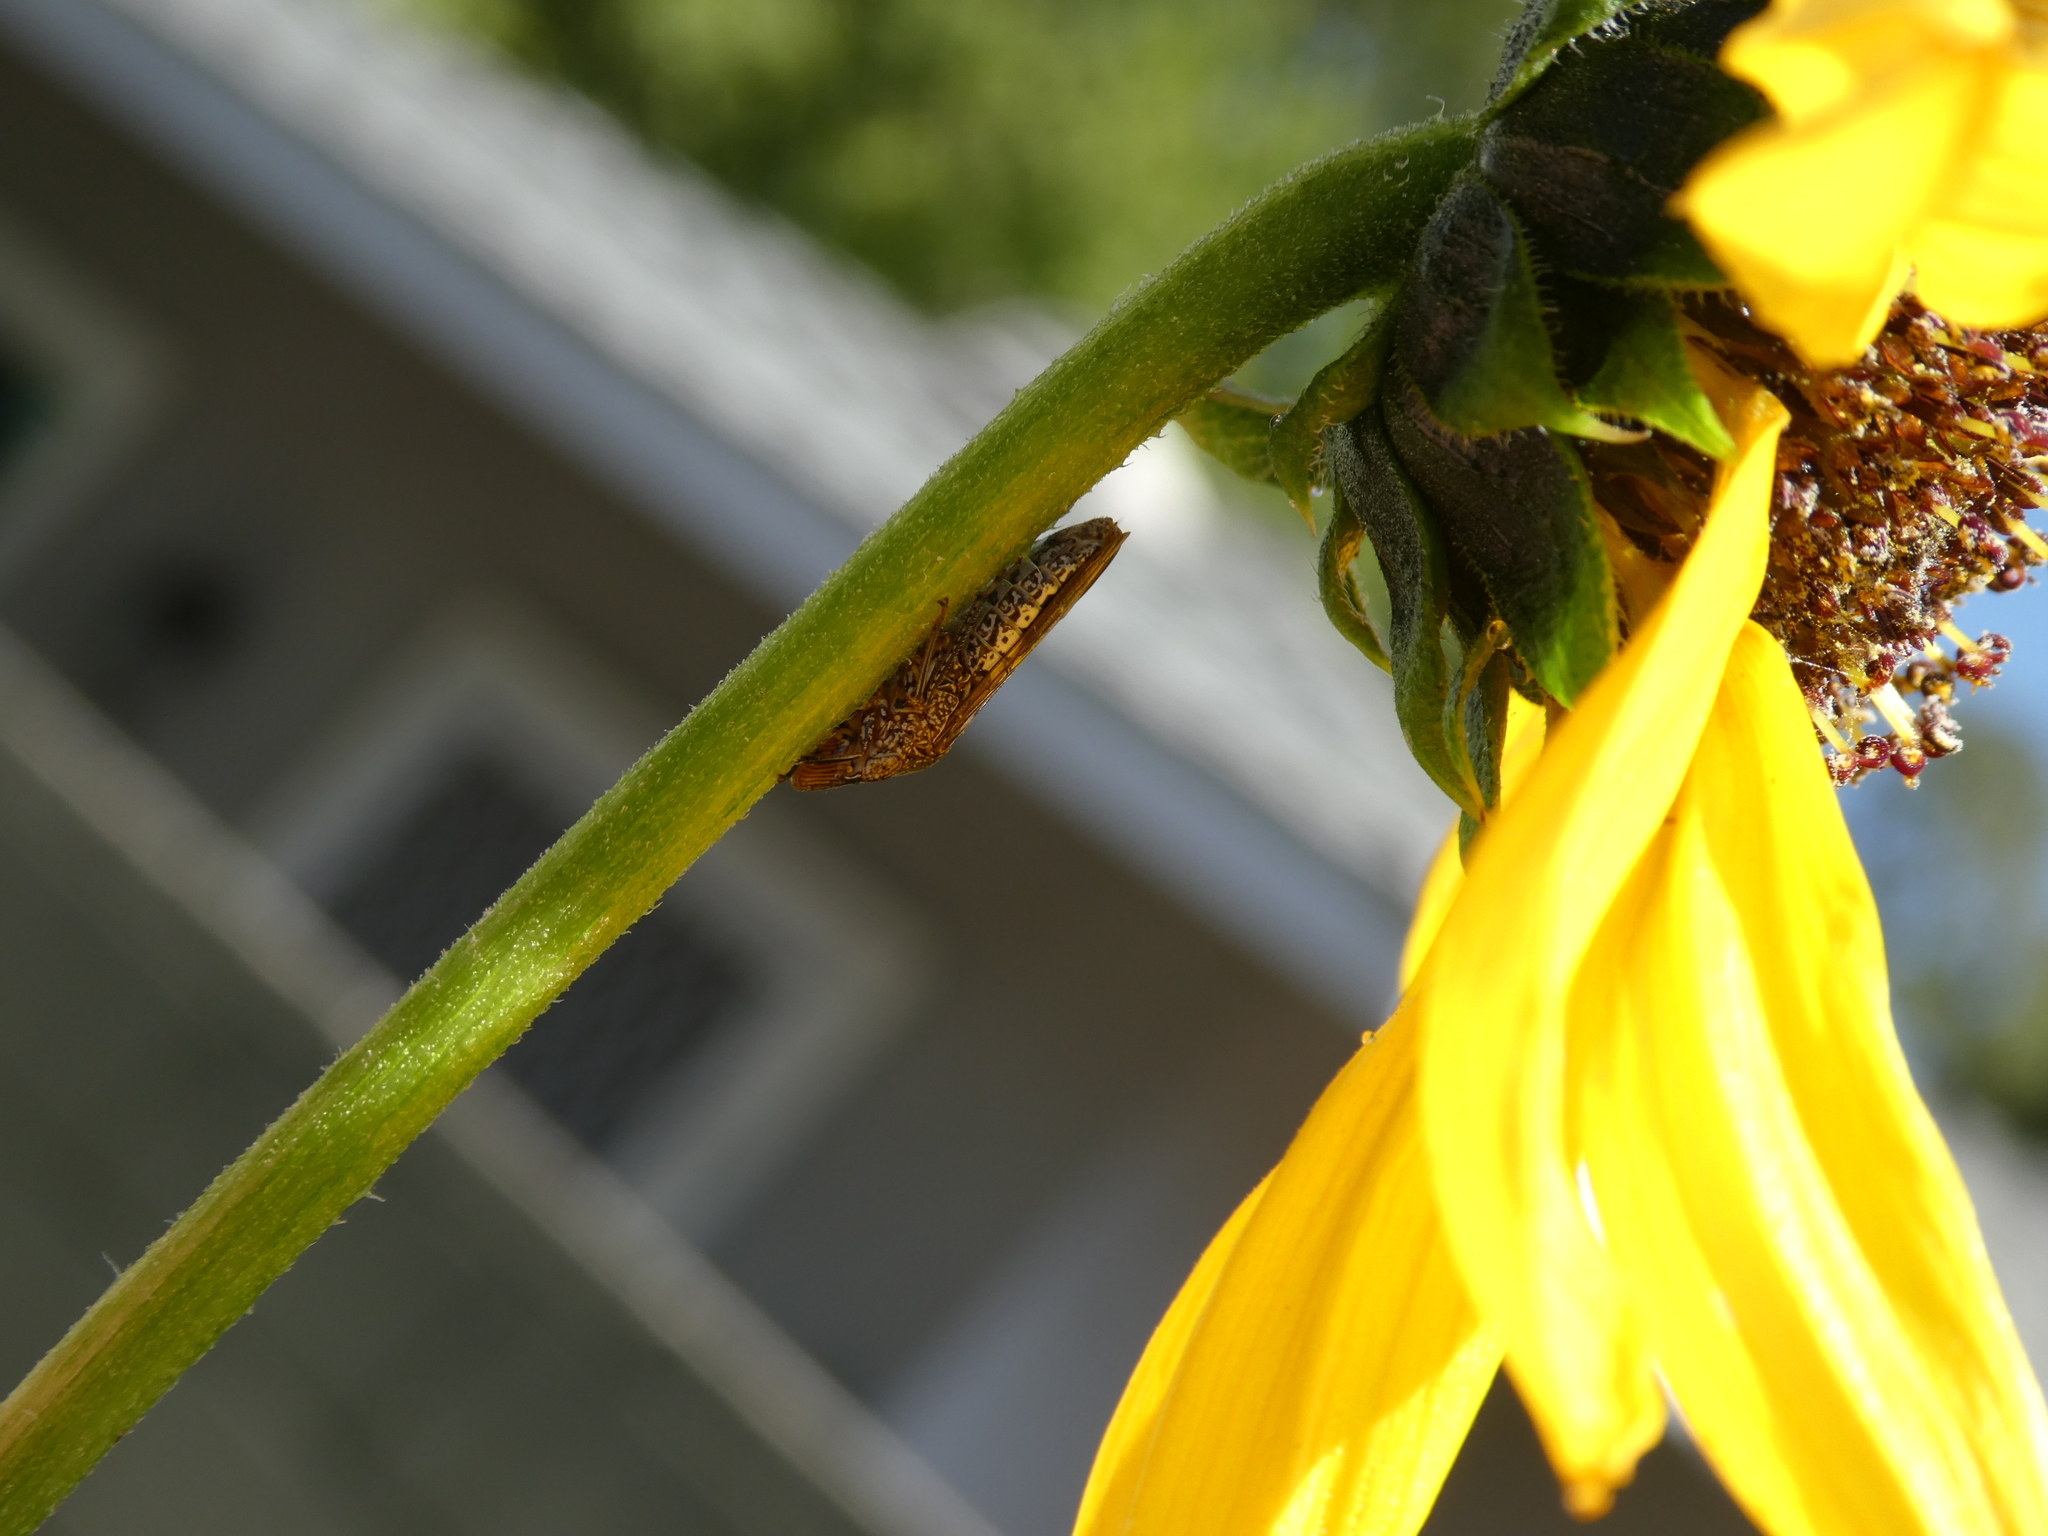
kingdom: Animalia
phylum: Arthropoda
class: Insecta
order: Hemiptera
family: Cicadellidae
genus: Homalodisca
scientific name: Homalodisca vitripennis
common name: Glassy-winged sharpshooter
